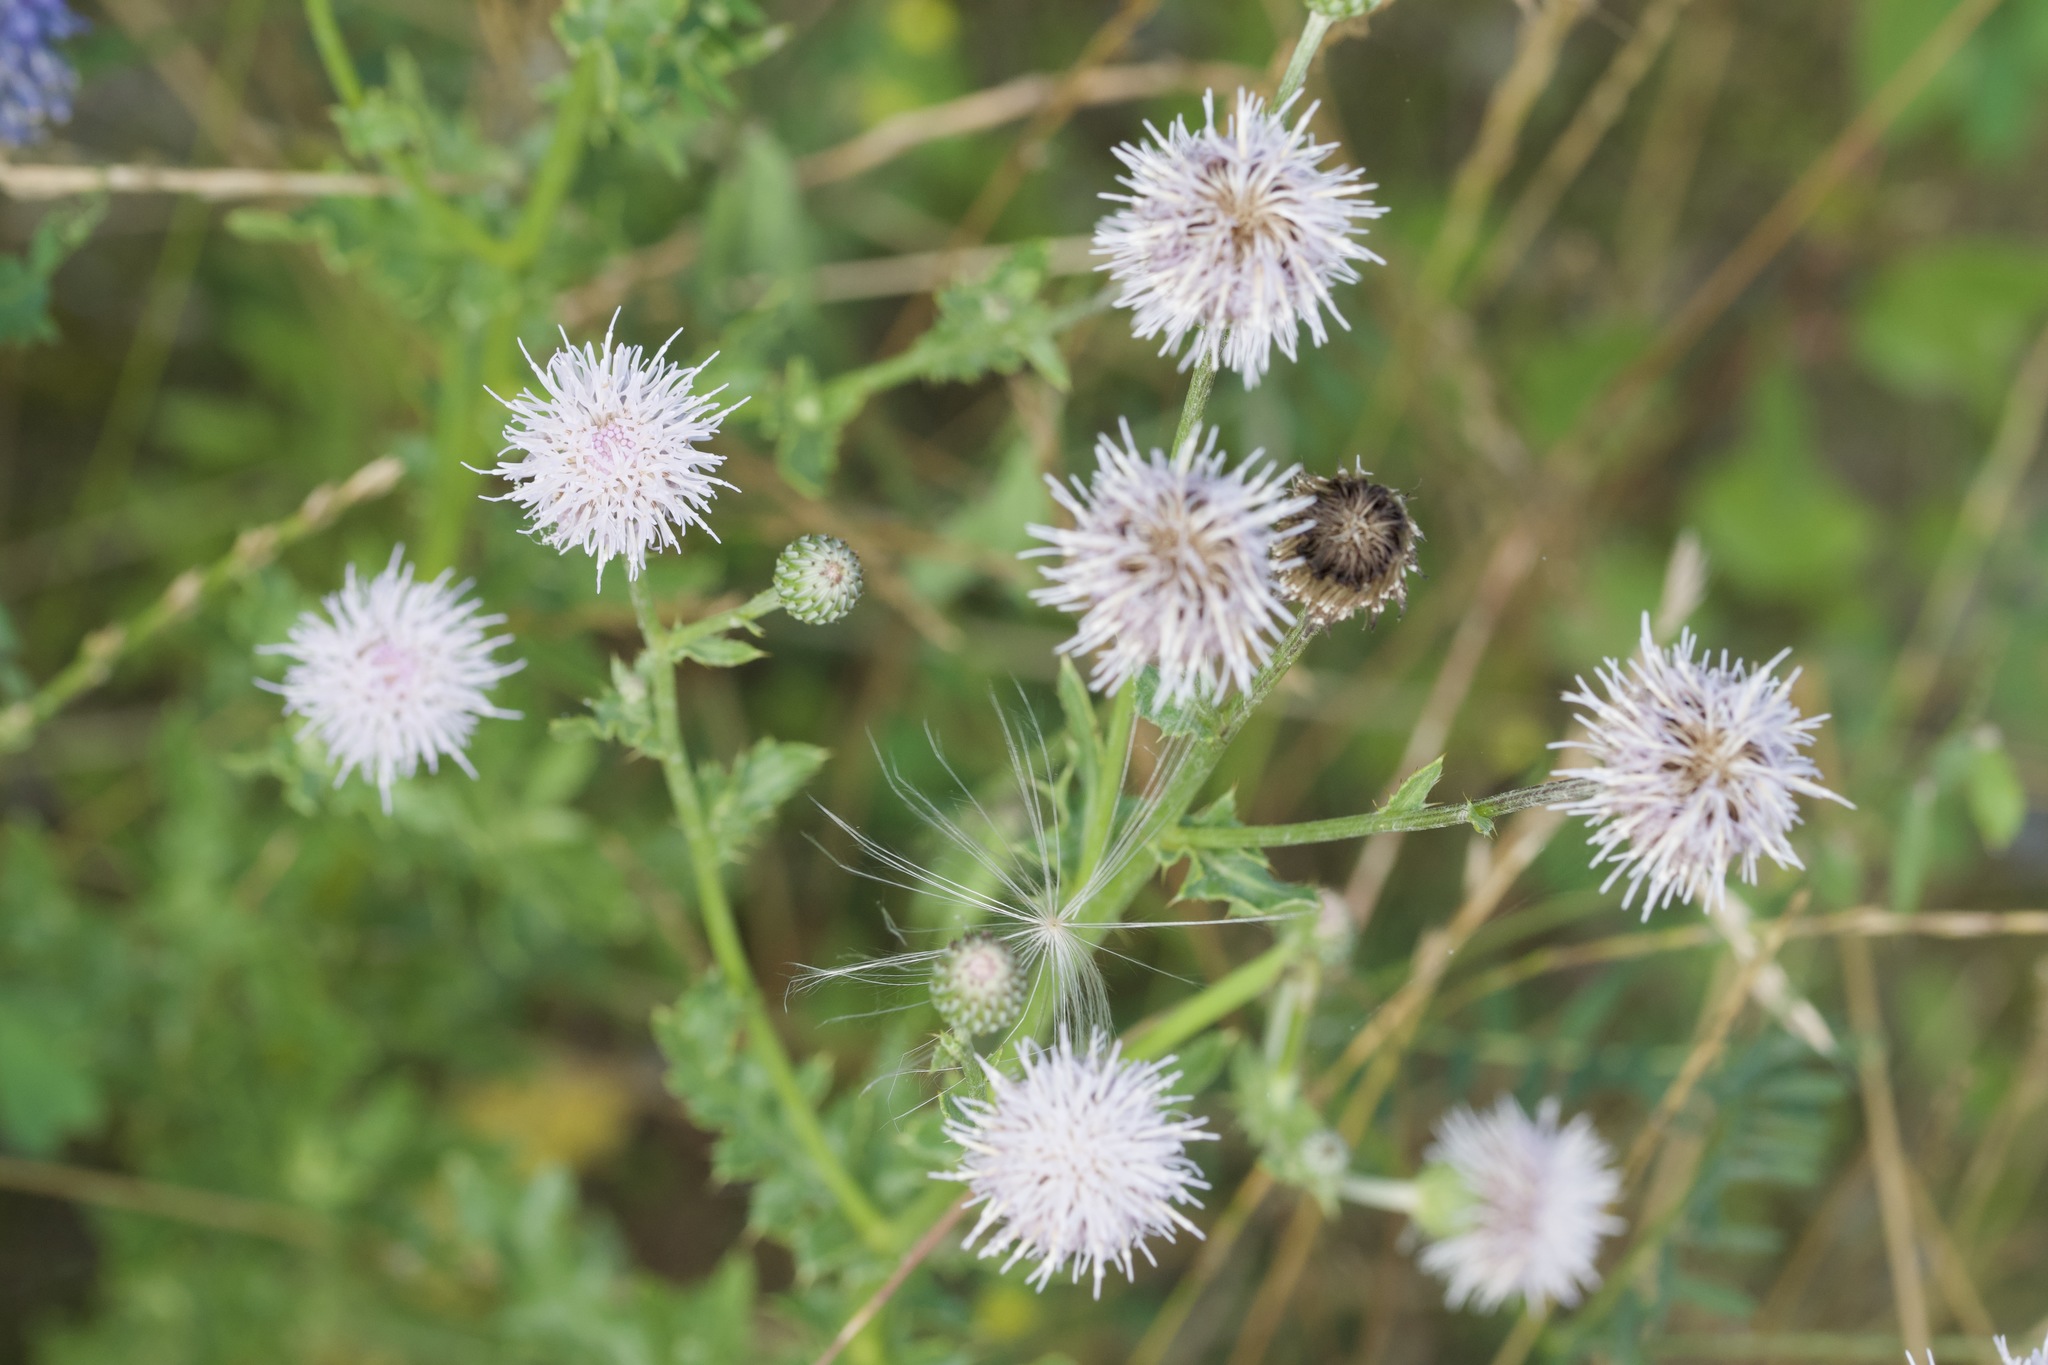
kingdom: Plantae
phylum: Tracheophyta
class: Magnoliopsida
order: Asterales
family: Asteraceae
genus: Cirsium
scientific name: Cirsium arvense
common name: Creeping thistle
